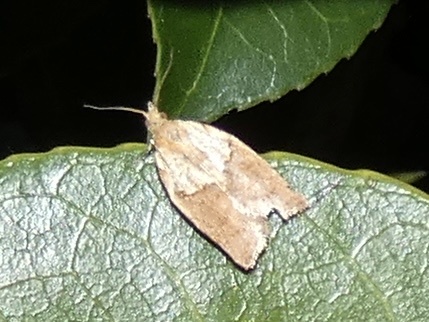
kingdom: Animalia
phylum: Arthropoda
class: Insecta
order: Lepidoptera
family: Tortricidae
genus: Epiphyas
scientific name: Epiphyas postvittana
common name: Light brown apple moth
